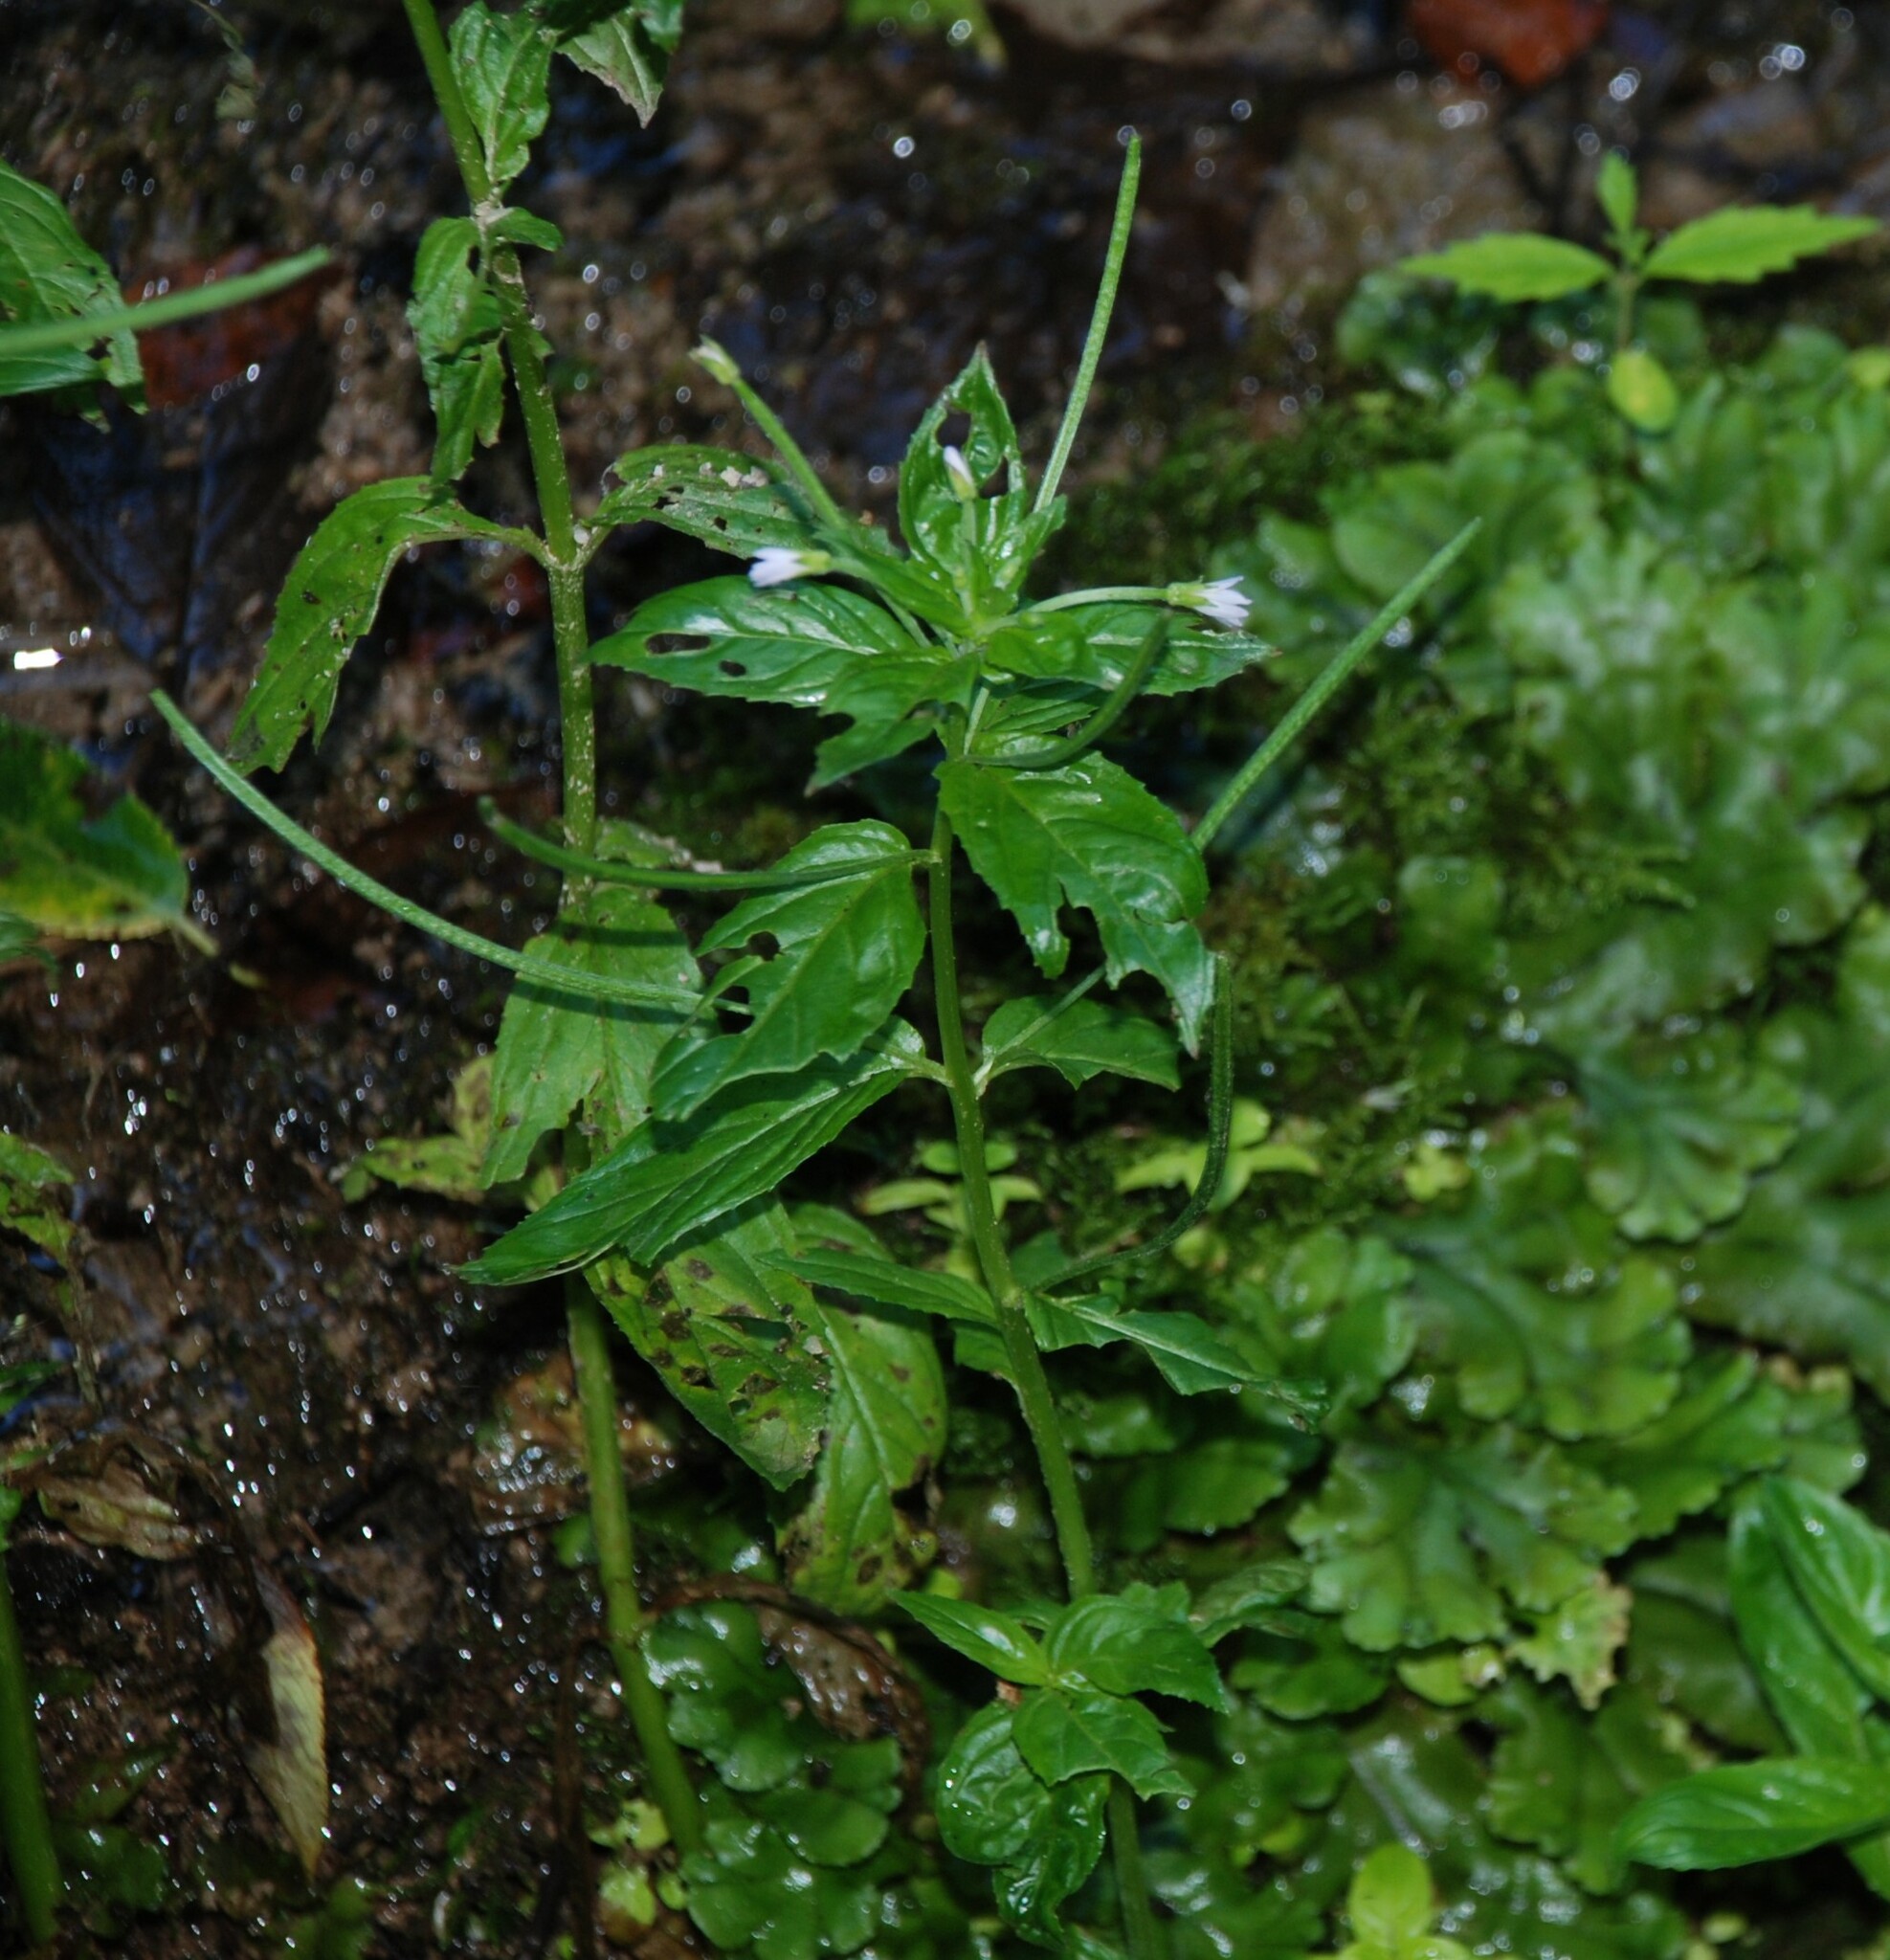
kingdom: Plantae
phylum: Tracheophyta
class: Magnoliopsida
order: Myrtales
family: Onagraceae
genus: Epilobium
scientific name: Epilobium roseum
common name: Pale willowherb
